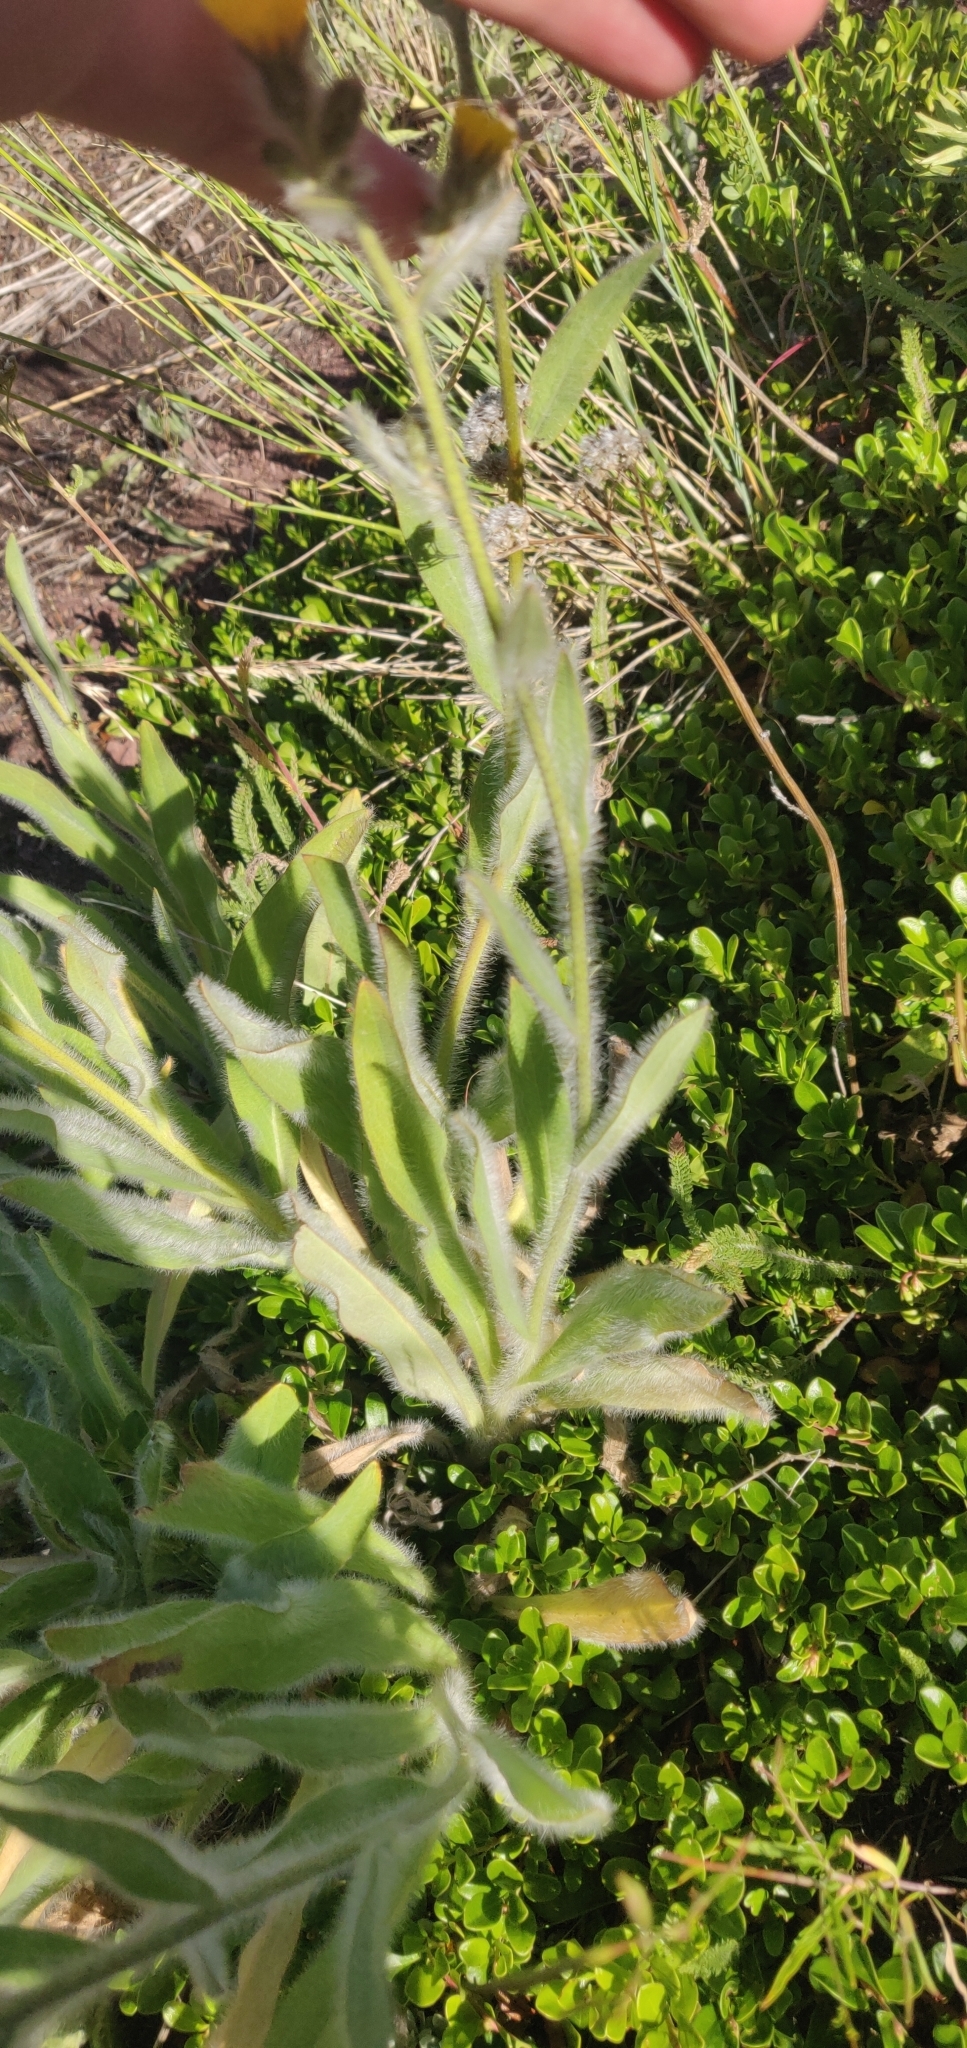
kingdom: Plantae
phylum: Tracheophyta
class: Magnoliopsida
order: Asterales
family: Asteraceae
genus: Hieracium
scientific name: Hieracium scouleri
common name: Hound's-tongue hawkweed
